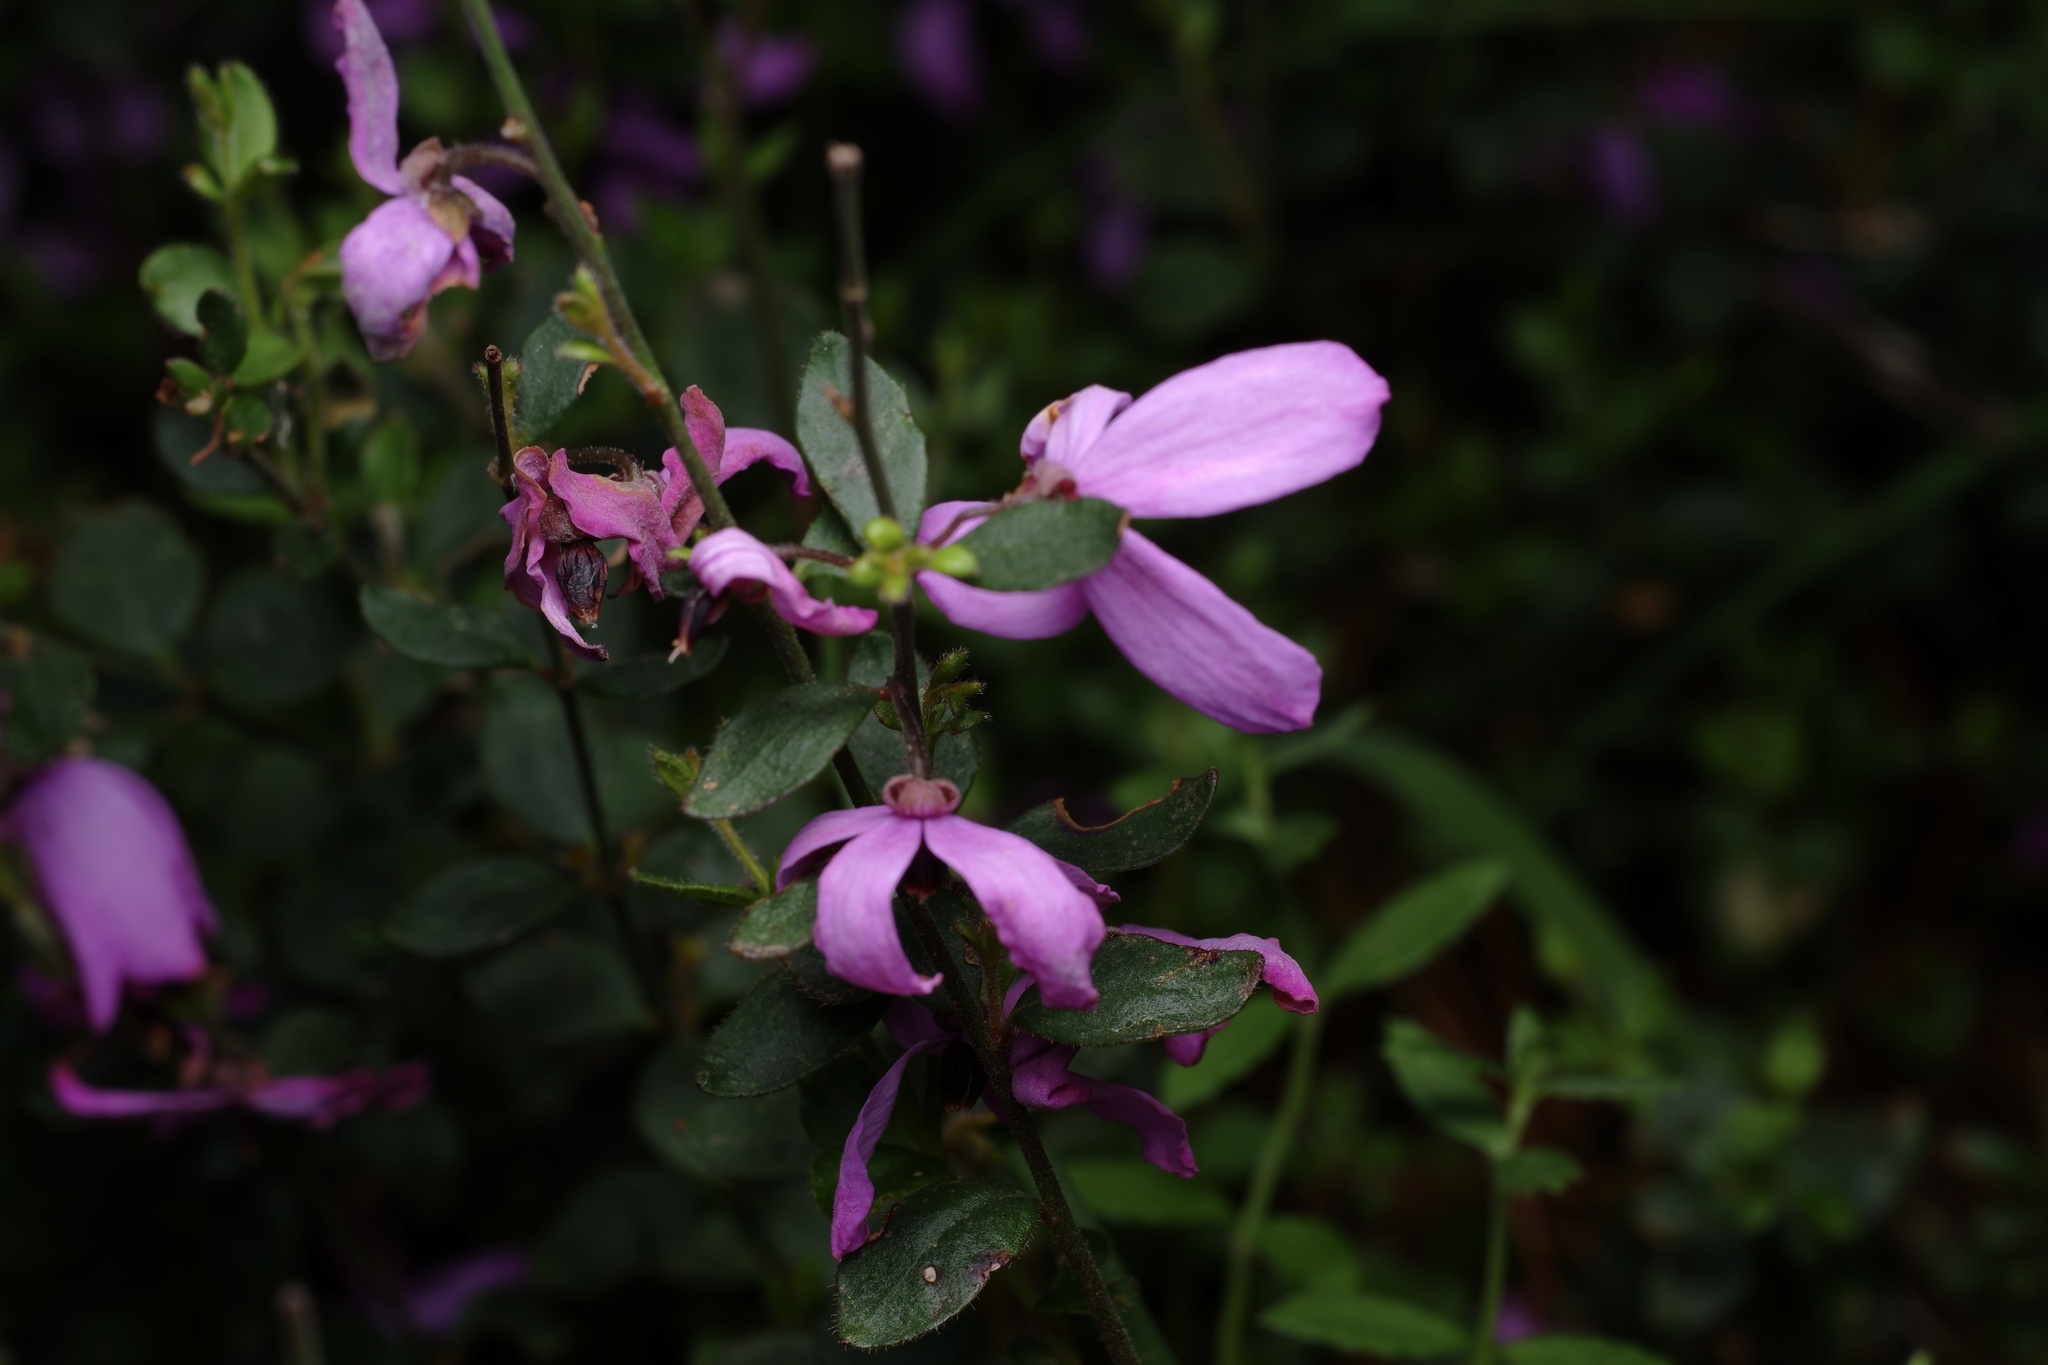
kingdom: Plantae
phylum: Tracheophyta
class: Magnoliopsida
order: Oxalidales
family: Elaeocarpaceae
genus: Tetratheca
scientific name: Tetratheca ciliata
